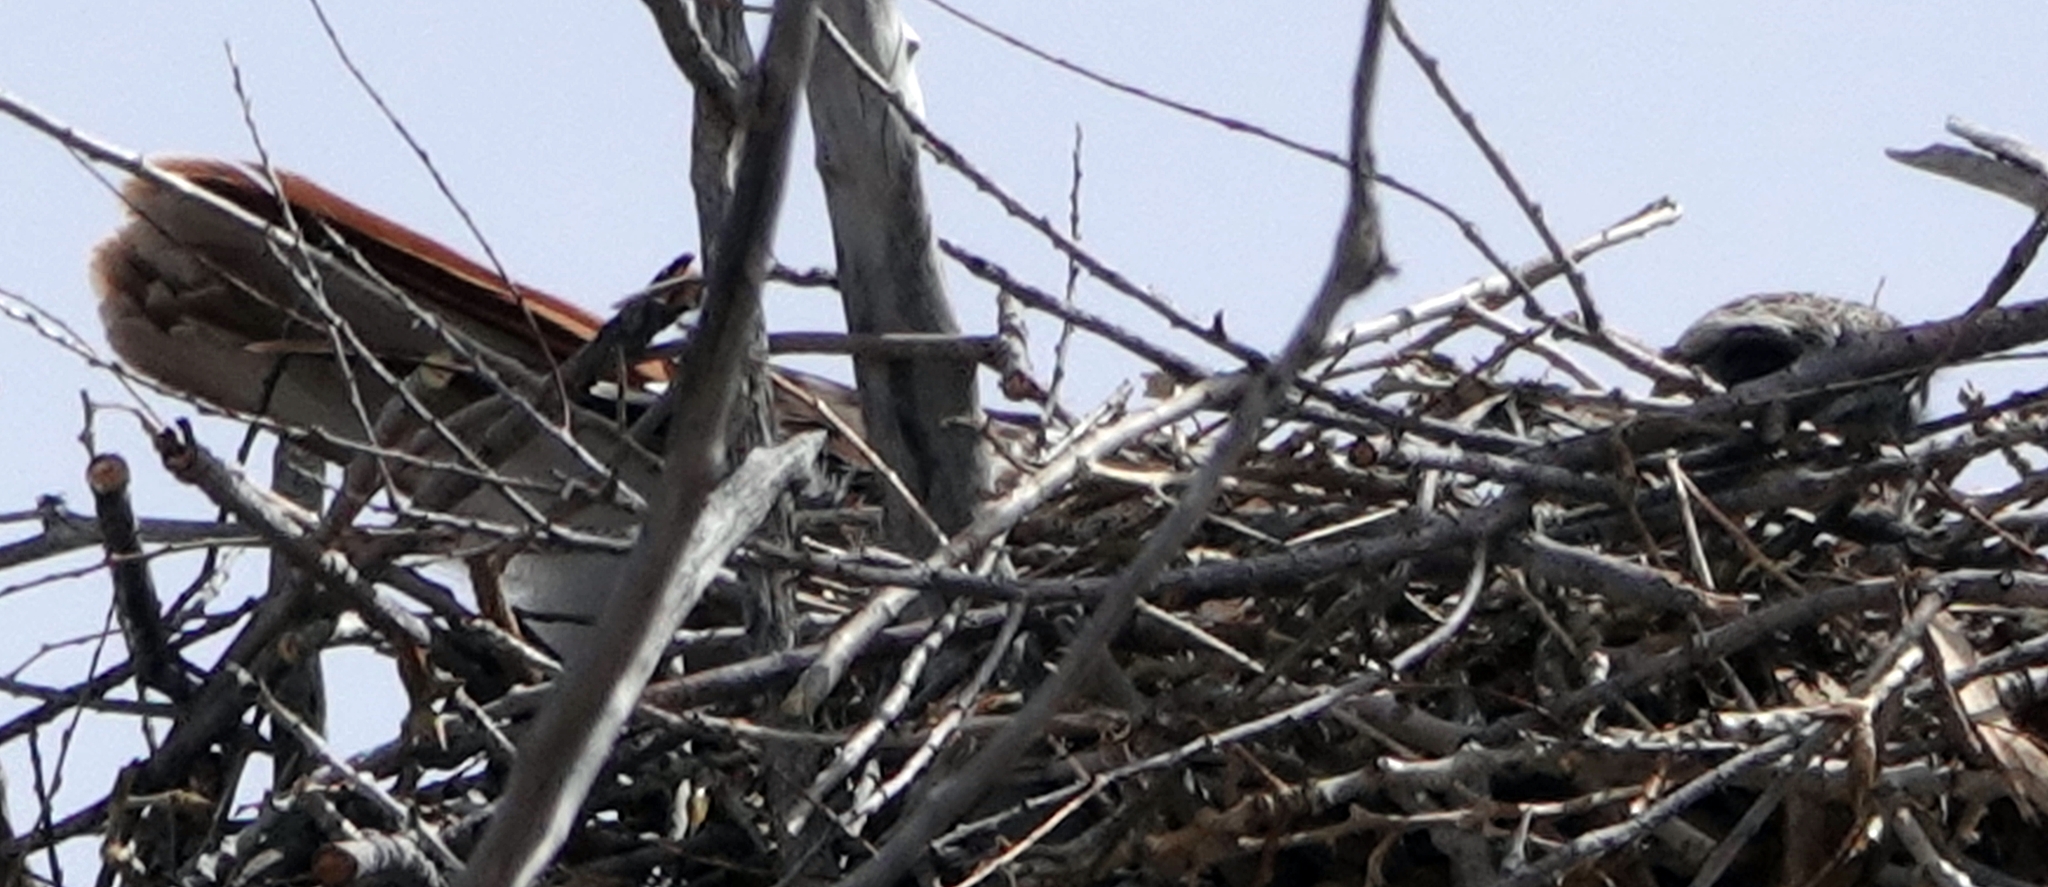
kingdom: Animalia
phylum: Chordata
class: Aves
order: Accipitriformes
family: Accipitridae
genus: Buteo
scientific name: Buteo jamaicensis
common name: Red-tailed hawk
